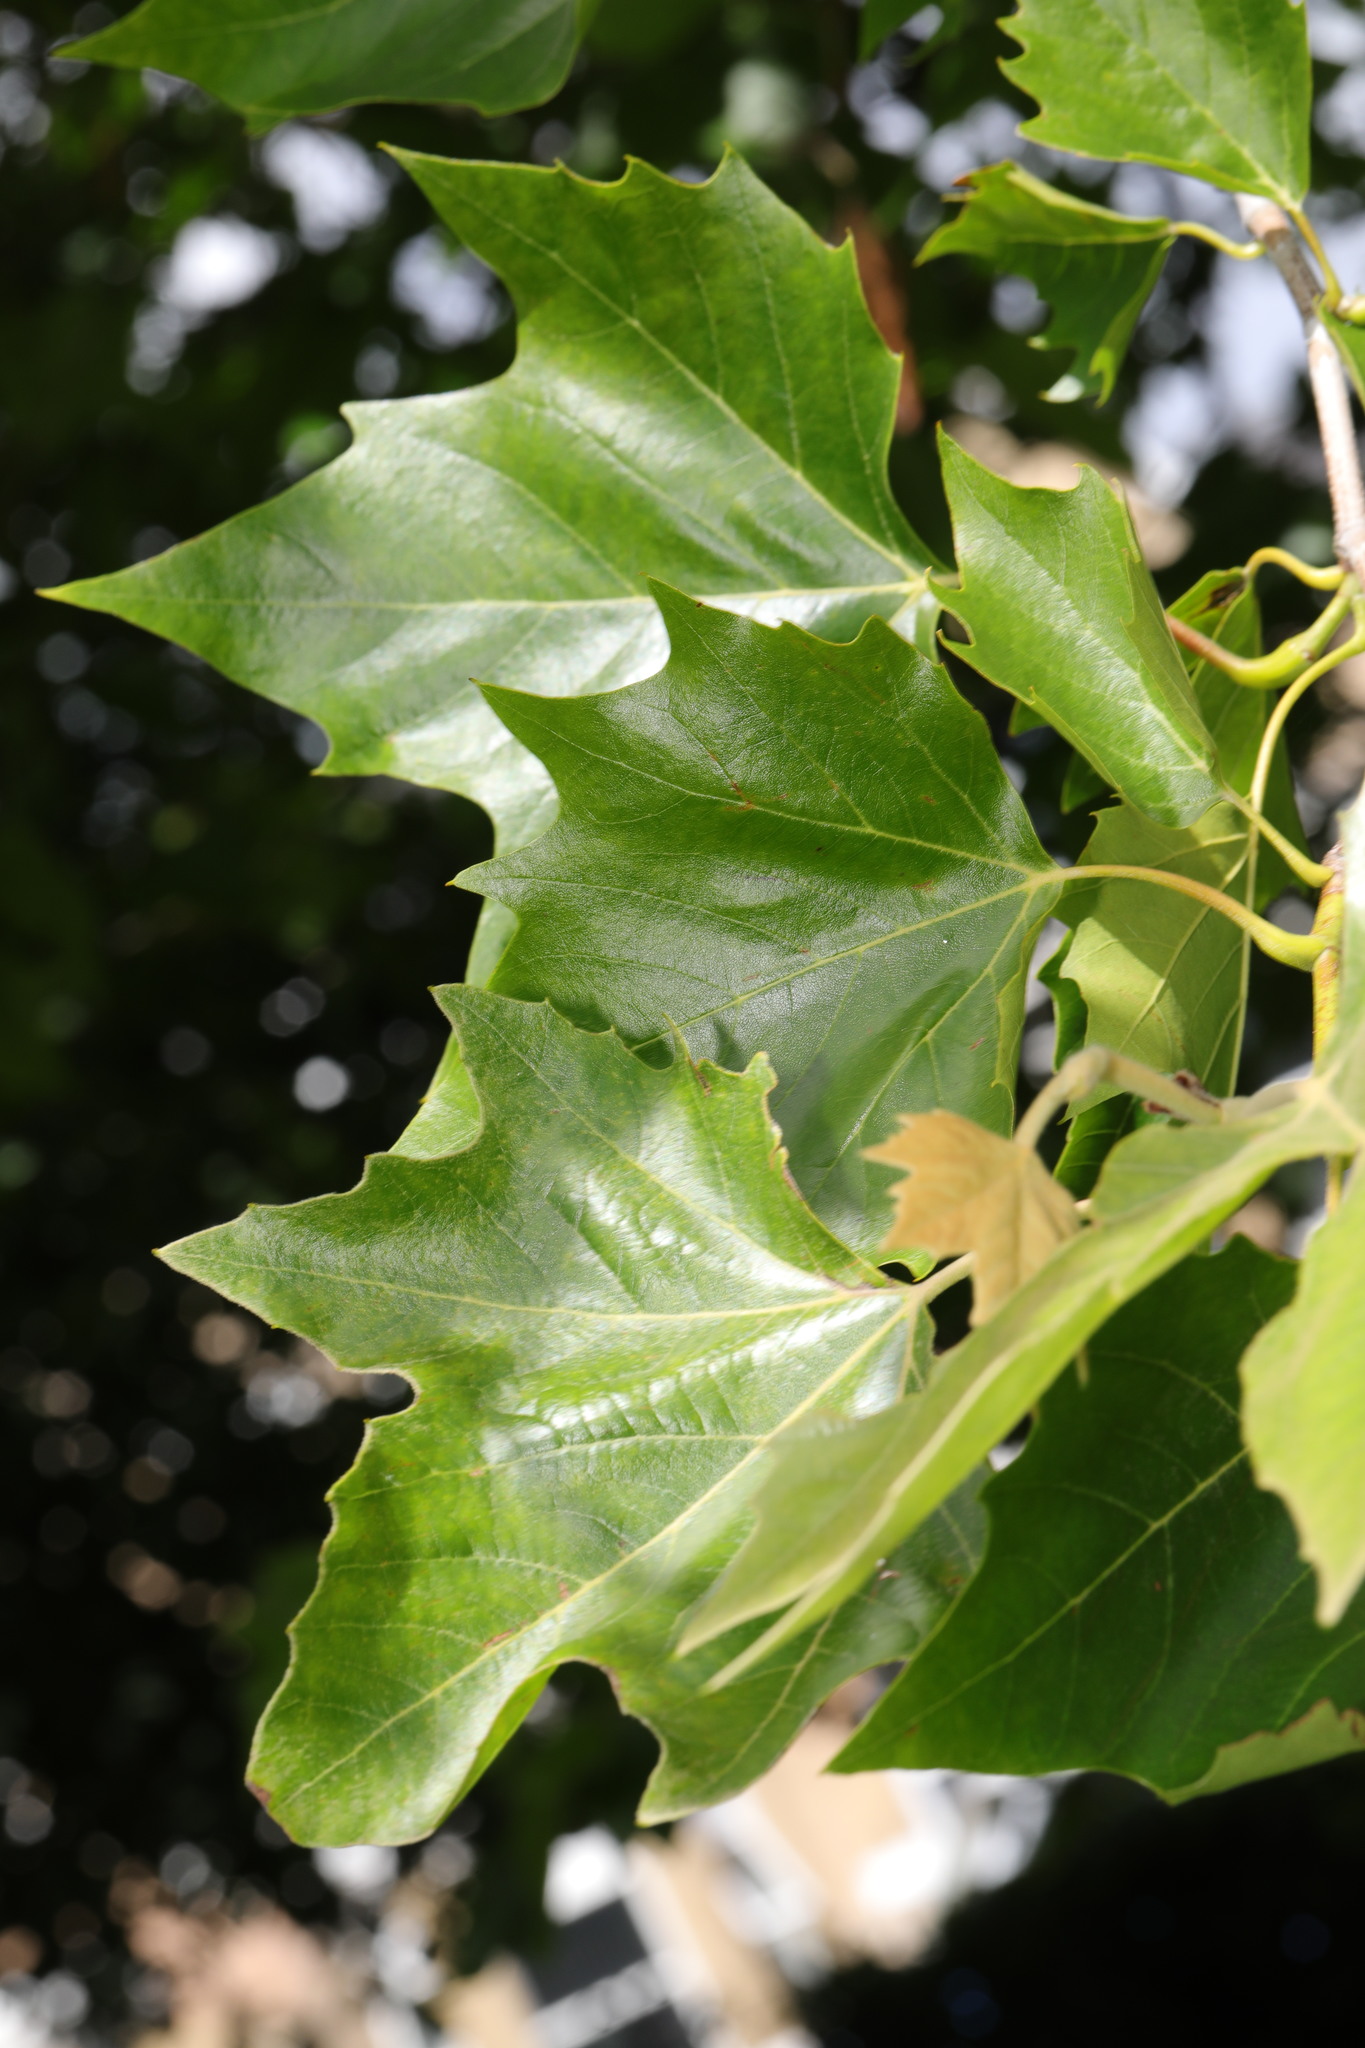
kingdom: Plantae
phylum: Tracheophyta
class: Magnoliopsida
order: Proteales
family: Platanaceae
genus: Platanus
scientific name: Platanus hispanica
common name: London plane
